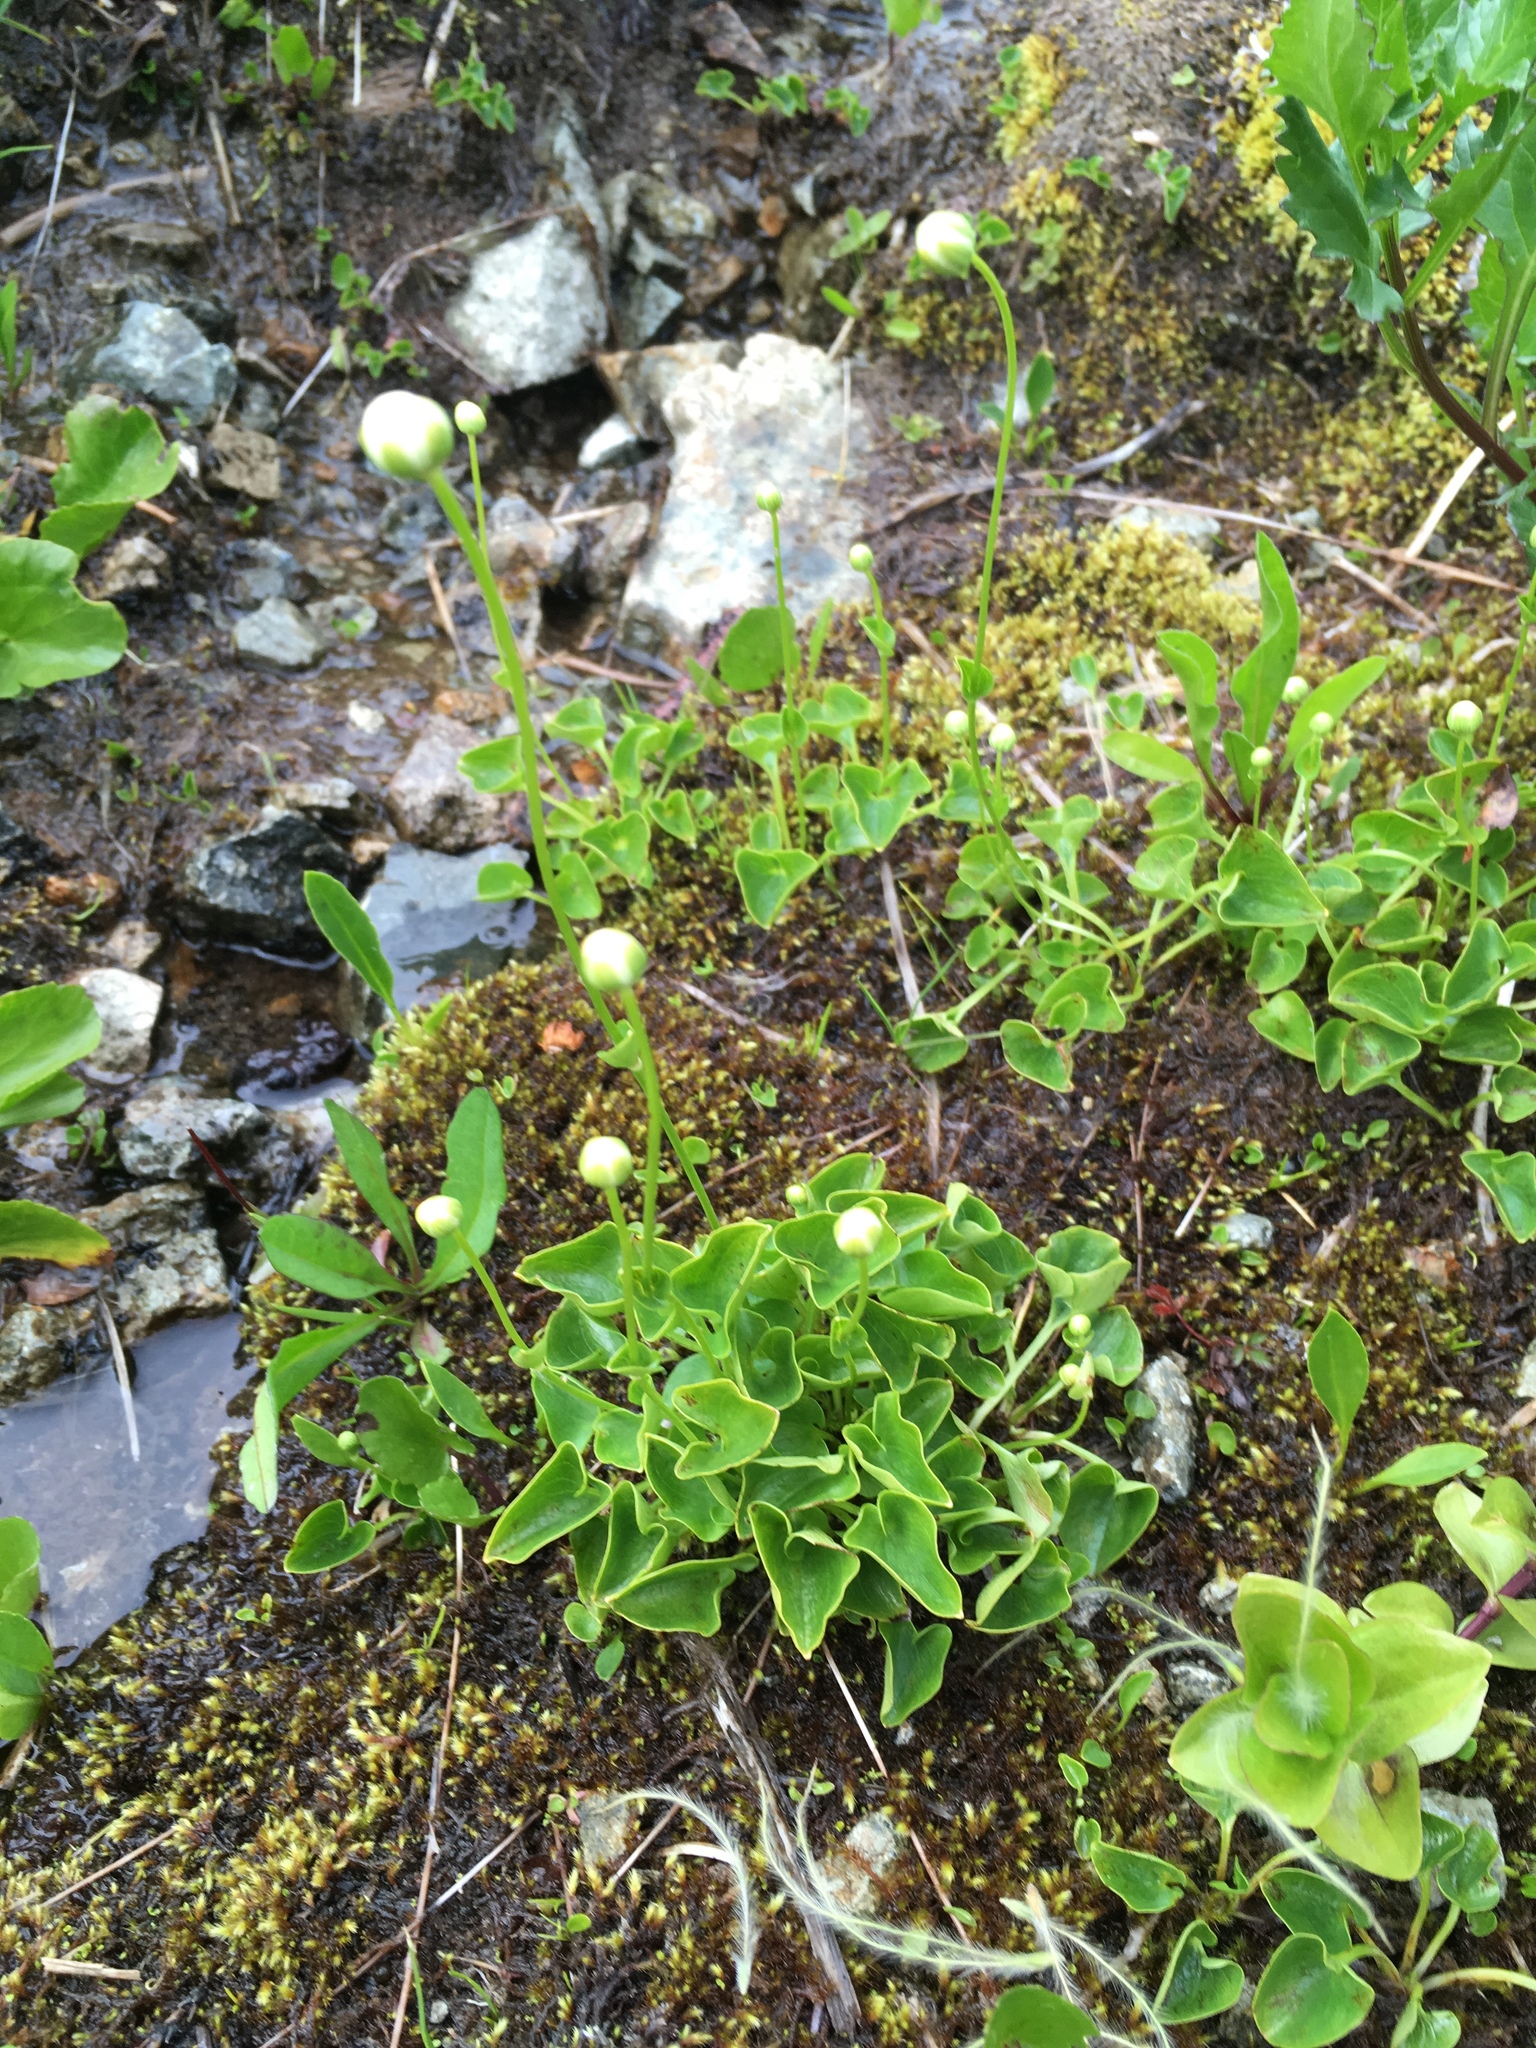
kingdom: Plantae
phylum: Tracheophyta
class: Magnoliopsida
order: Celastrales
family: Parnassiaceae
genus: Parnassia
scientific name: Parnassia fimbriata
